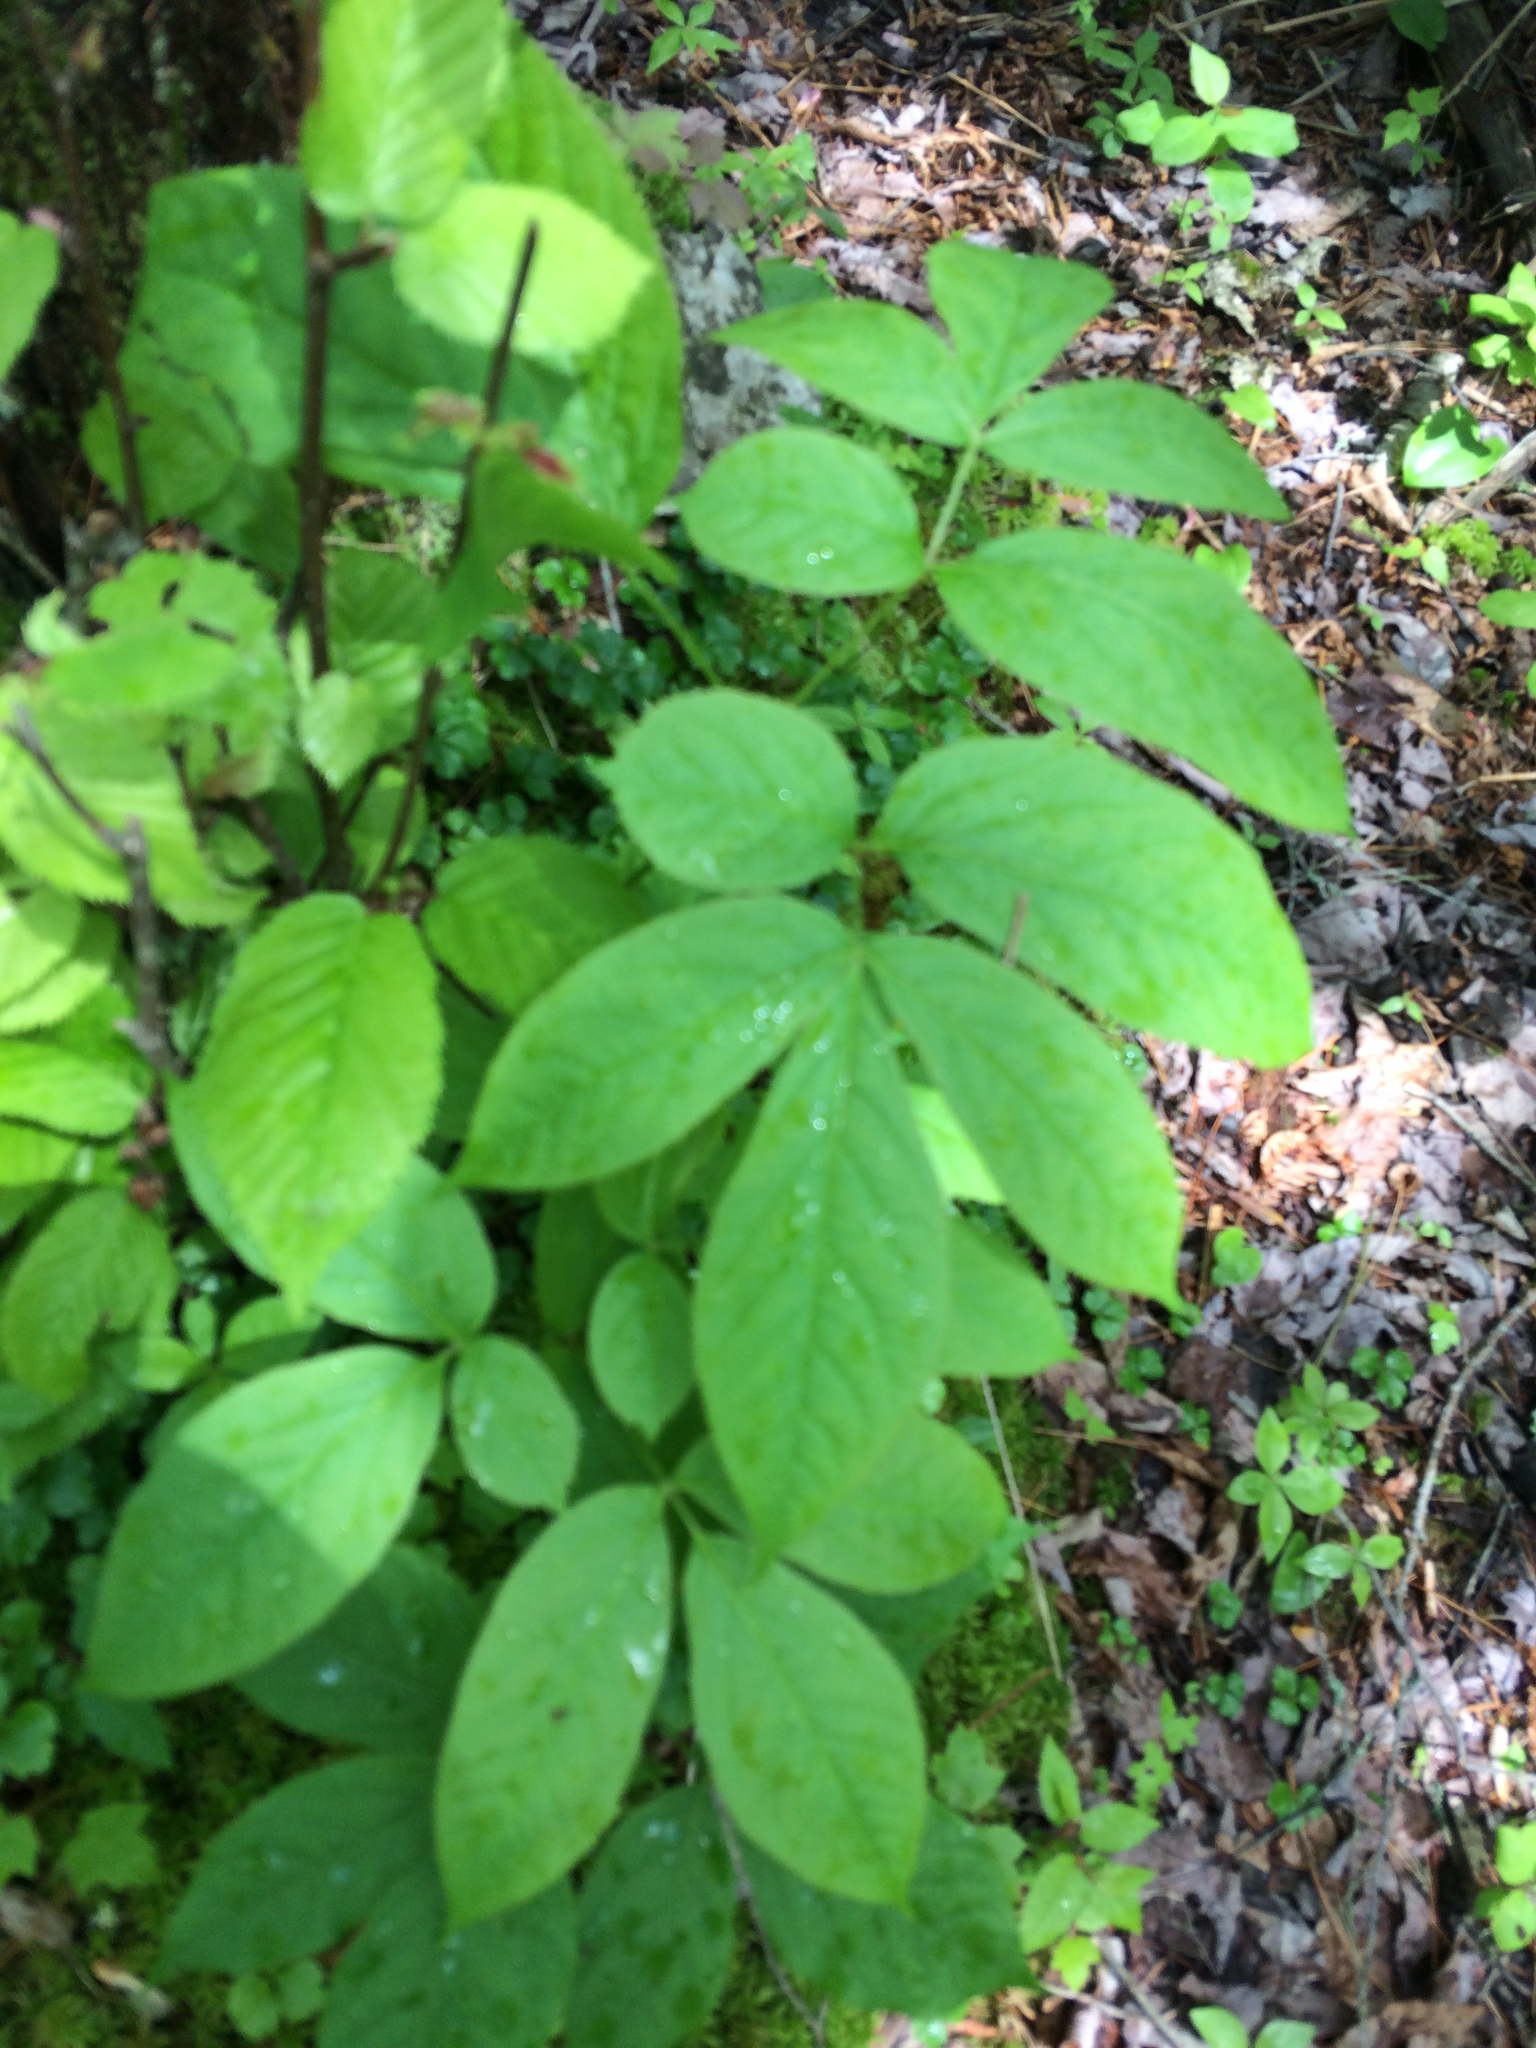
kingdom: Plantae
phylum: Tracheophyta
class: Magnoliopsida
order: Apiales
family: Araliaceae
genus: Aralia
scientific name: Aralia nudicaulis
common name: Wild sarsaparilla
